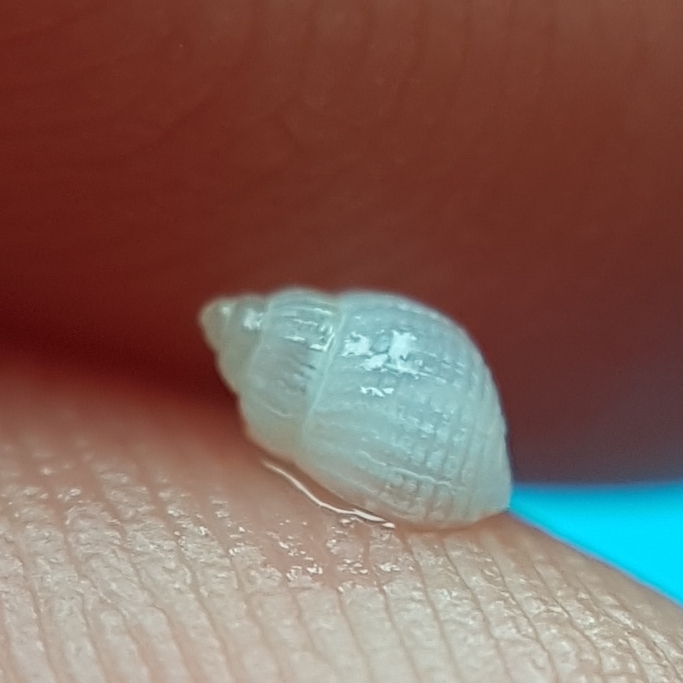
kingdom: Animalia
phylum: Mollusca
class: Gastropoda
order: Littorinimorpha
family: Rissoidae
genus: Alvania
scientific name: Alvania lactea
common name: Milk-white risso
